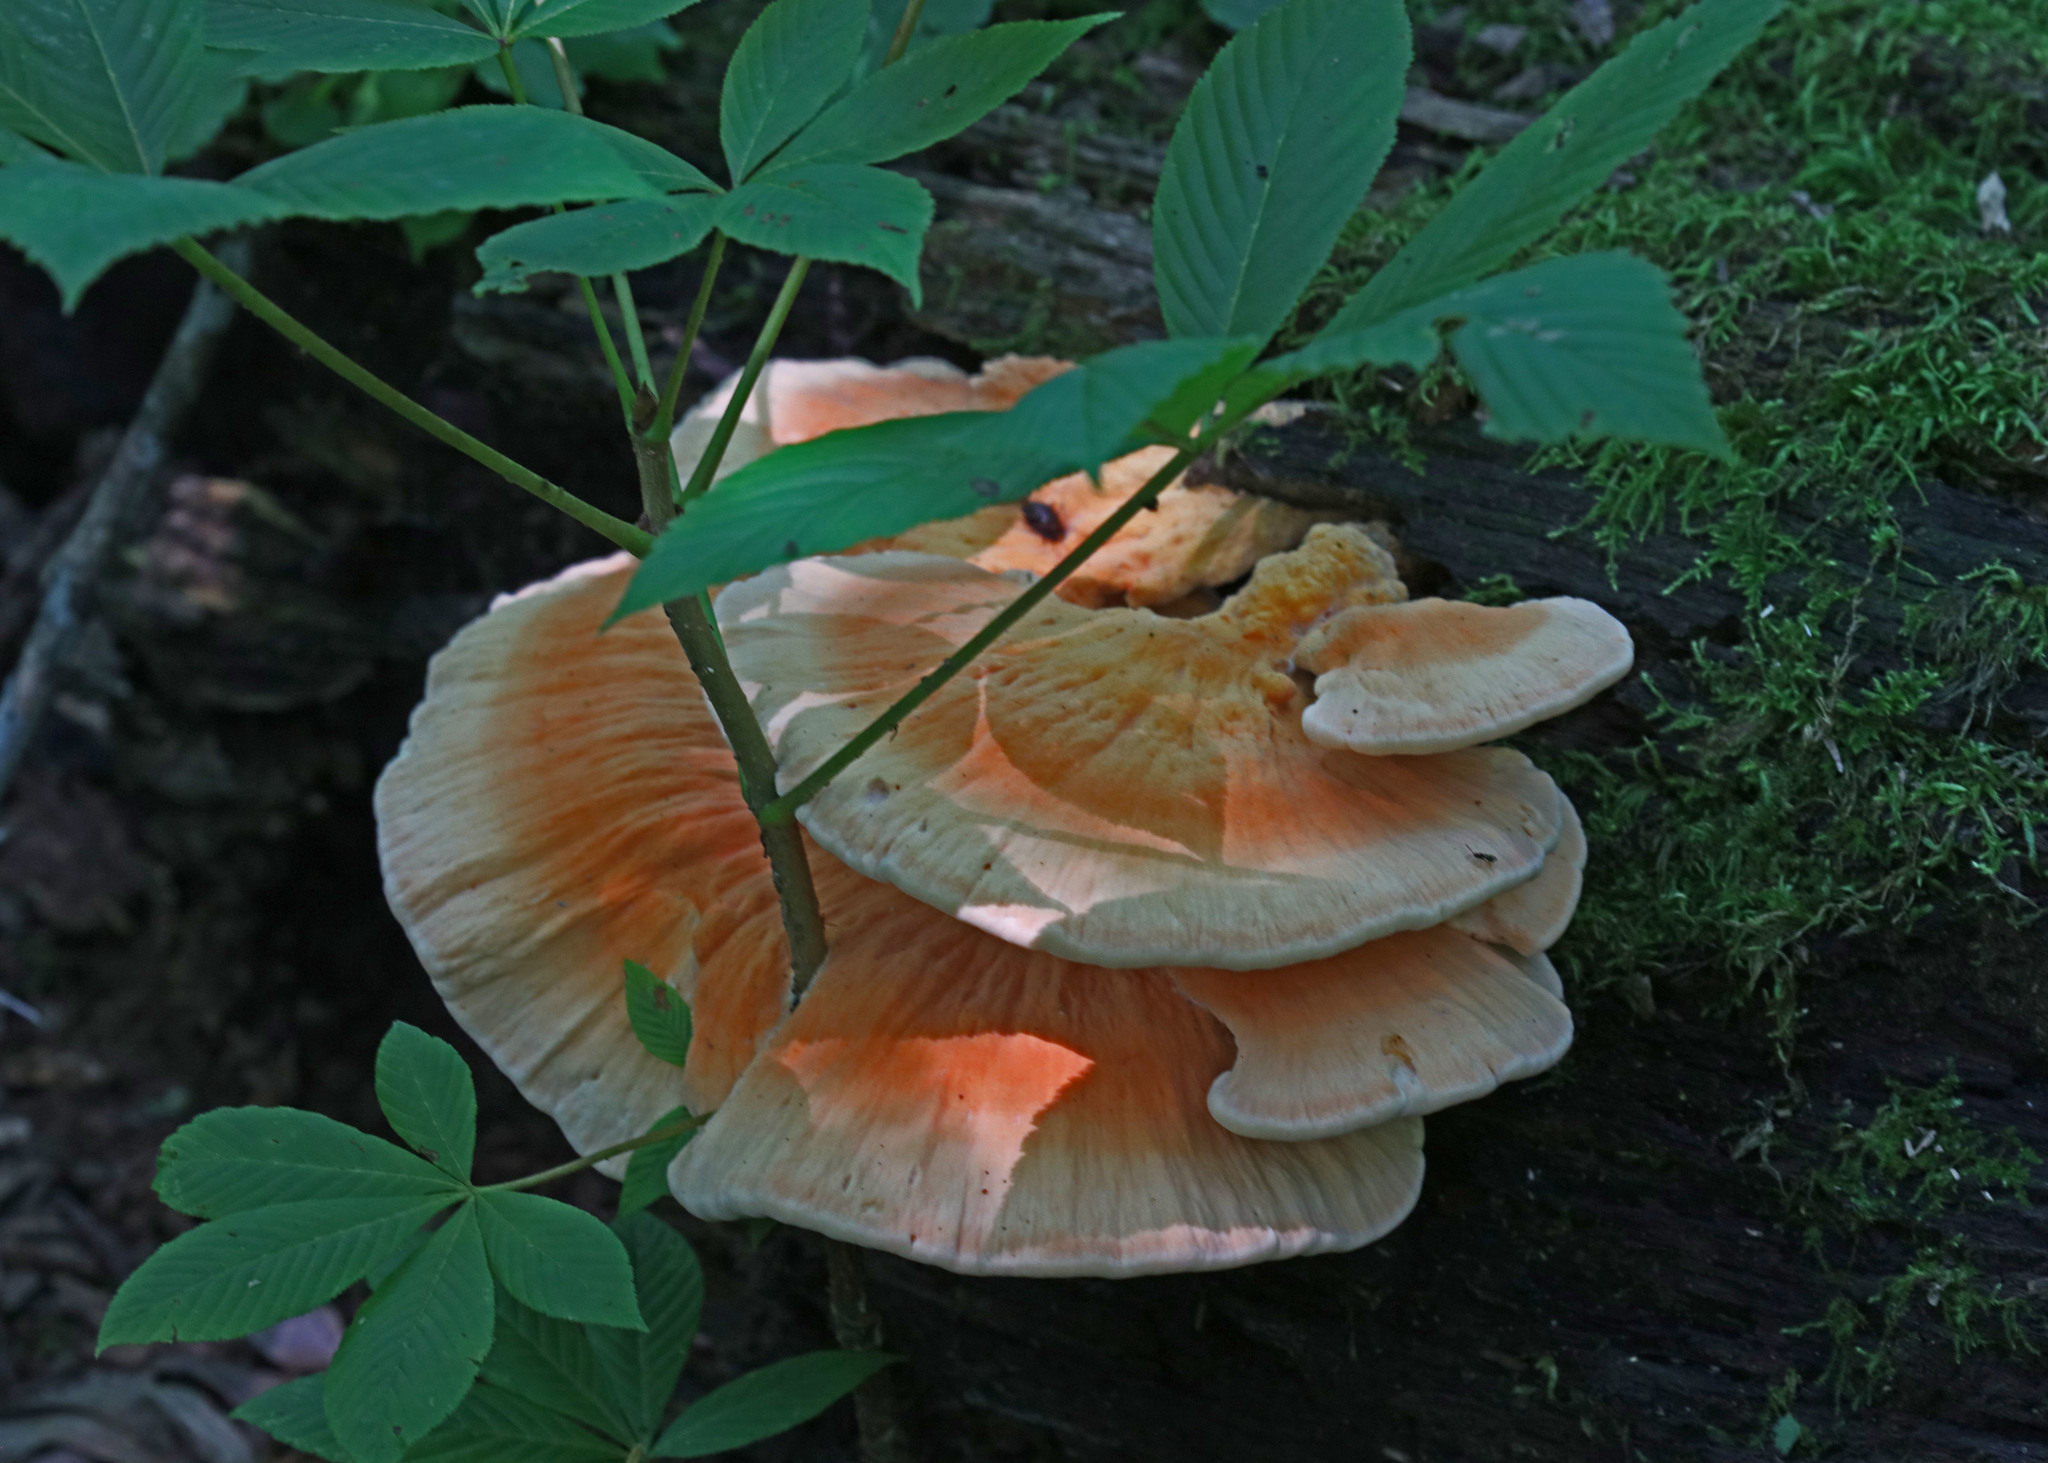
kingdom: Fungi
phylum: Basidiomycota
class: Agaricomycetes
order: Polyporales
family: Laetiporaceae
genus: Laetiporus
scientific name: Laetiporus sulphureus
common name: Chicken of the woods
